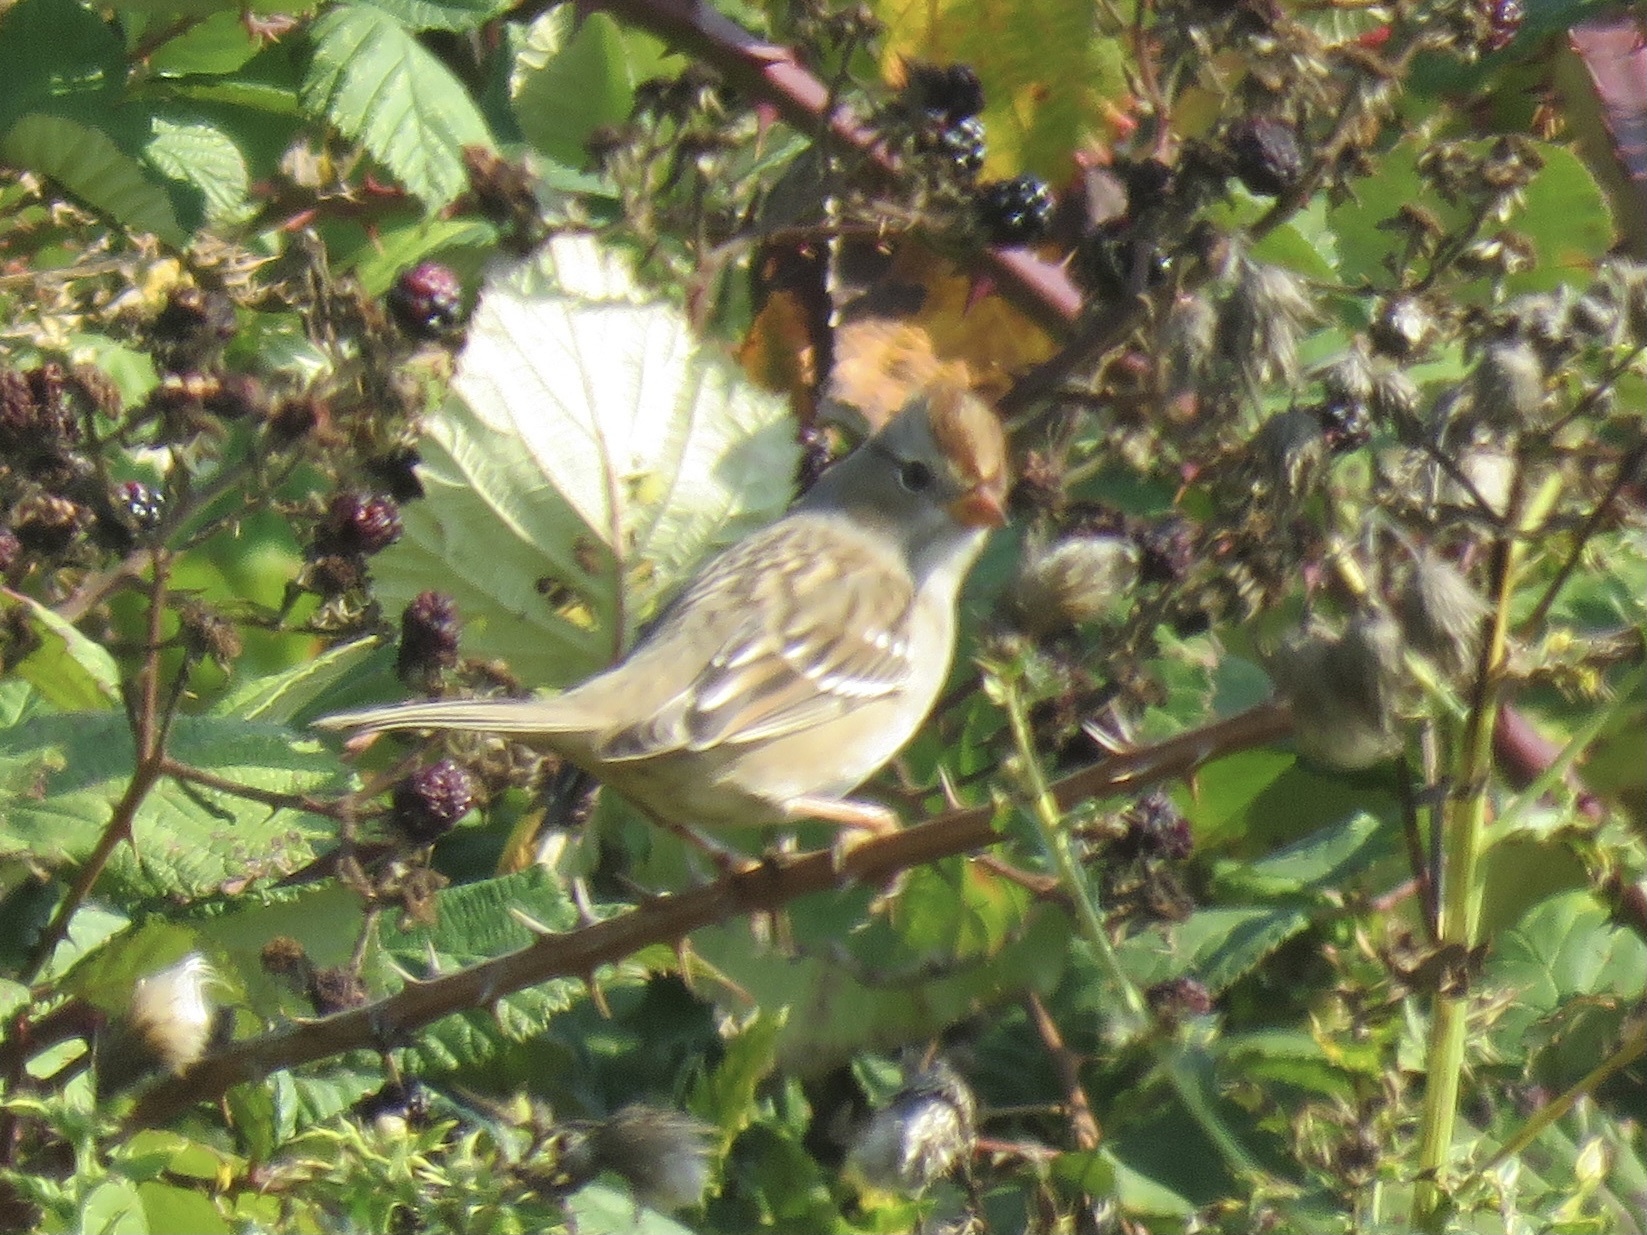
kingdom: Animalia
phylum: Chordata
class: Aves
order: Passeriformes
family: Passerellidae
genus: Zonotrichia
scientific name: Zonotrichia leucophrys
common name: White-crowned sparrow
